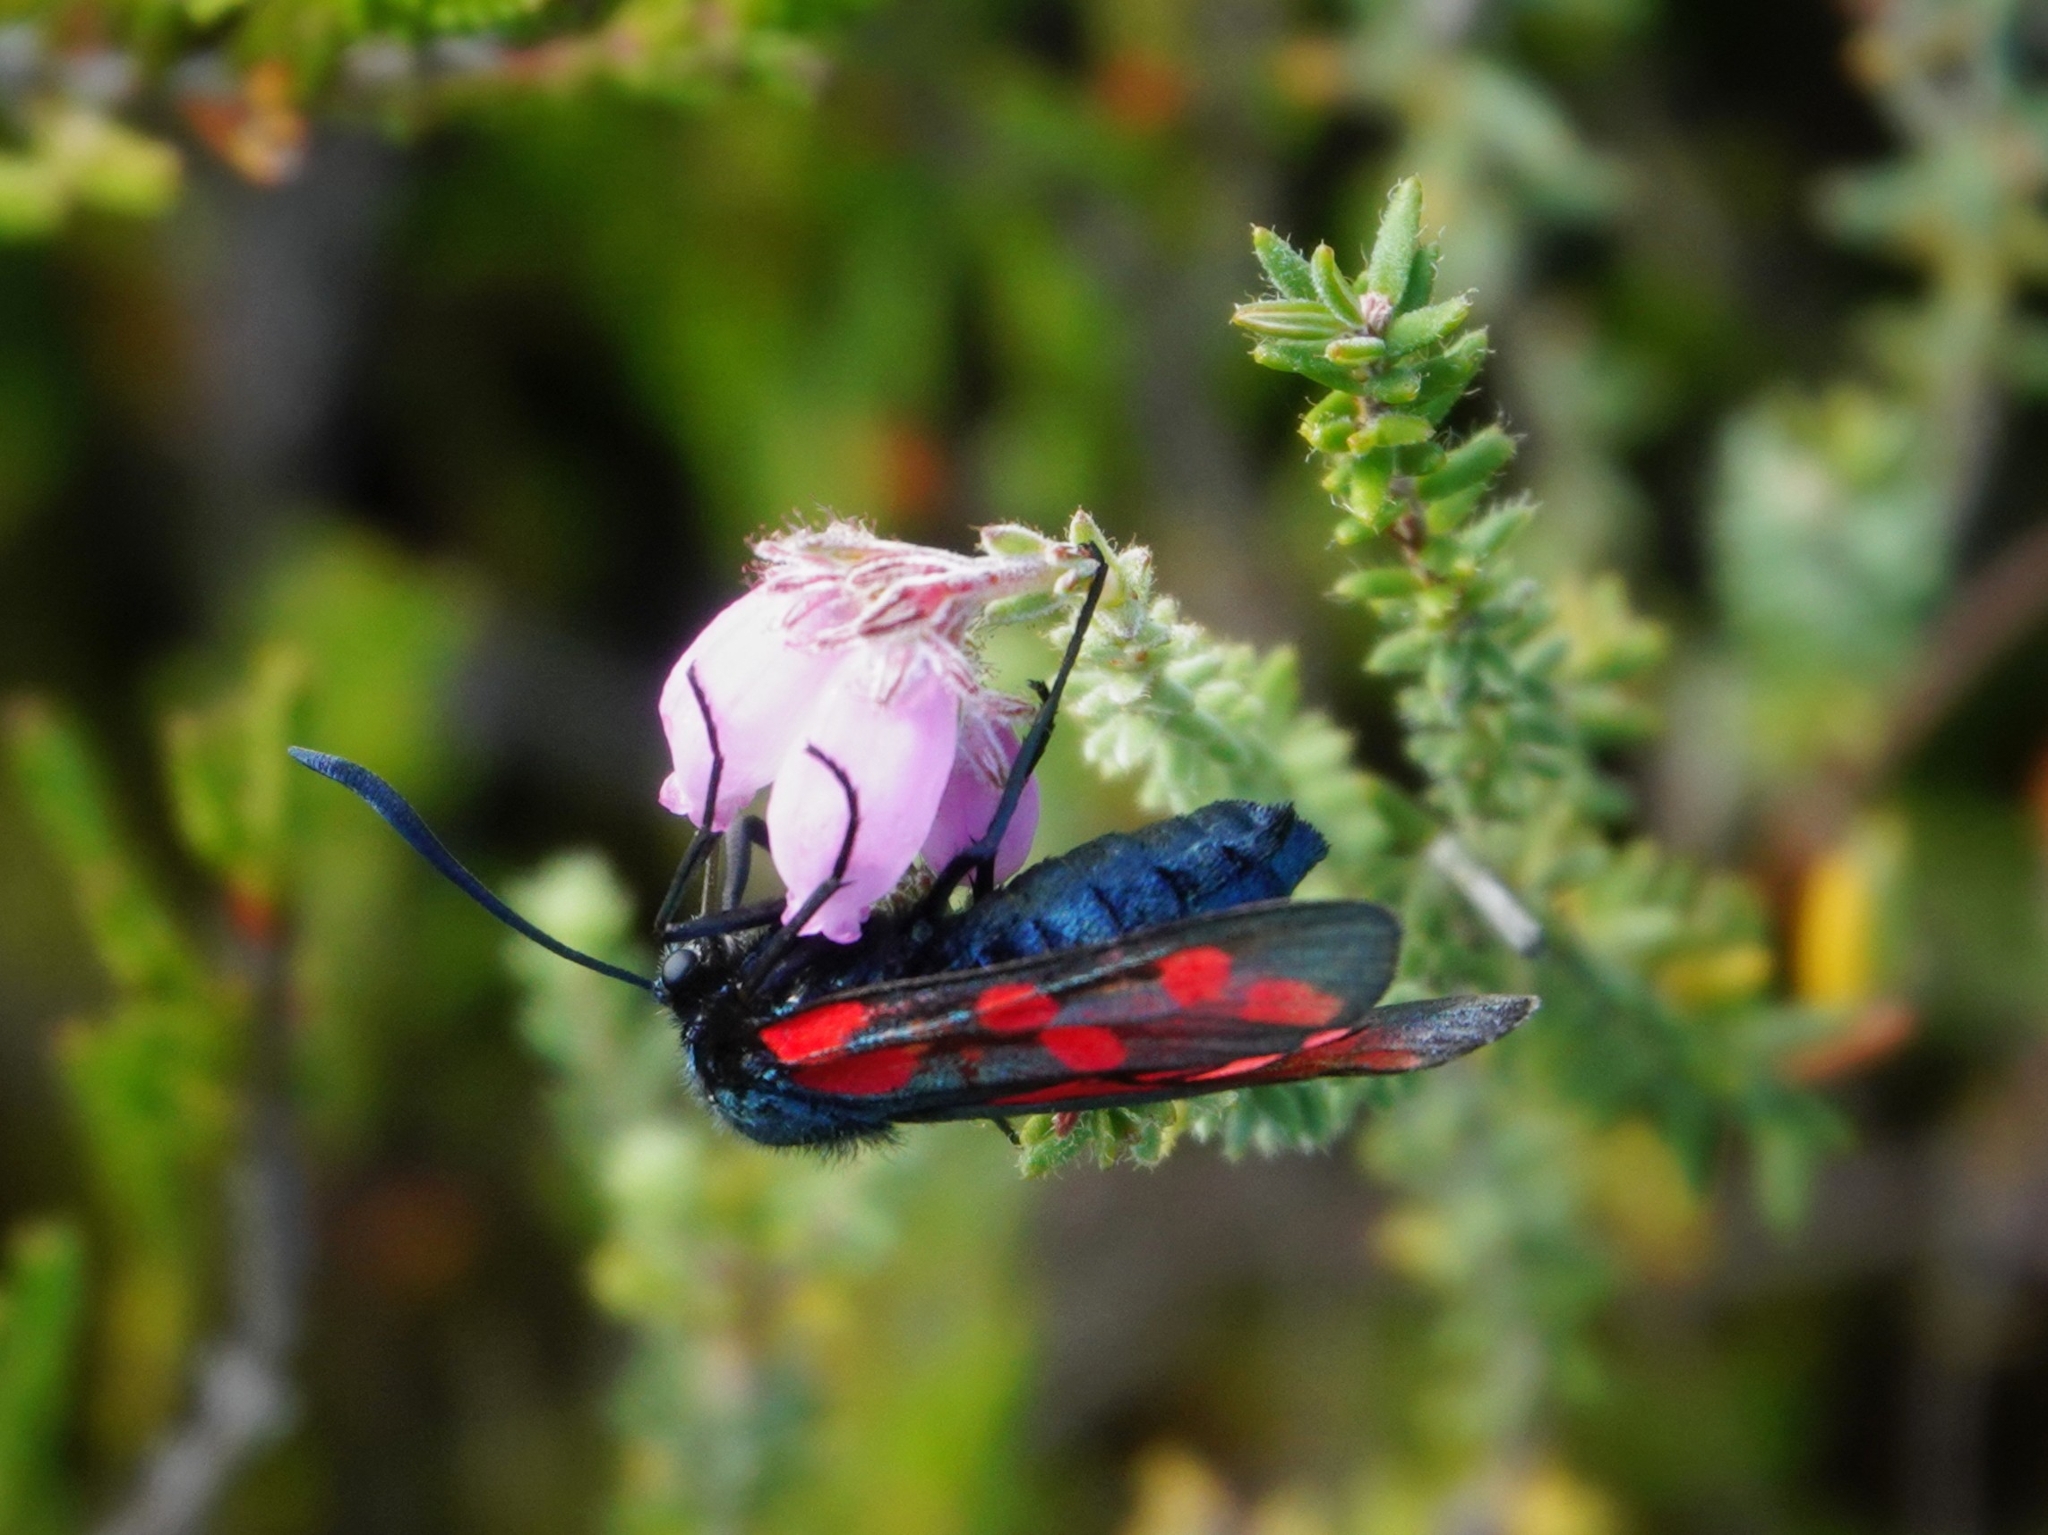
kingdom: Animalia
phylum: Arthropoda
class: Insecta
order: Lepidoptera
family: Zygaenidae
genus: Zygaena
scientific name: Zygaena filipendulae
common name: Six-spot burnet
